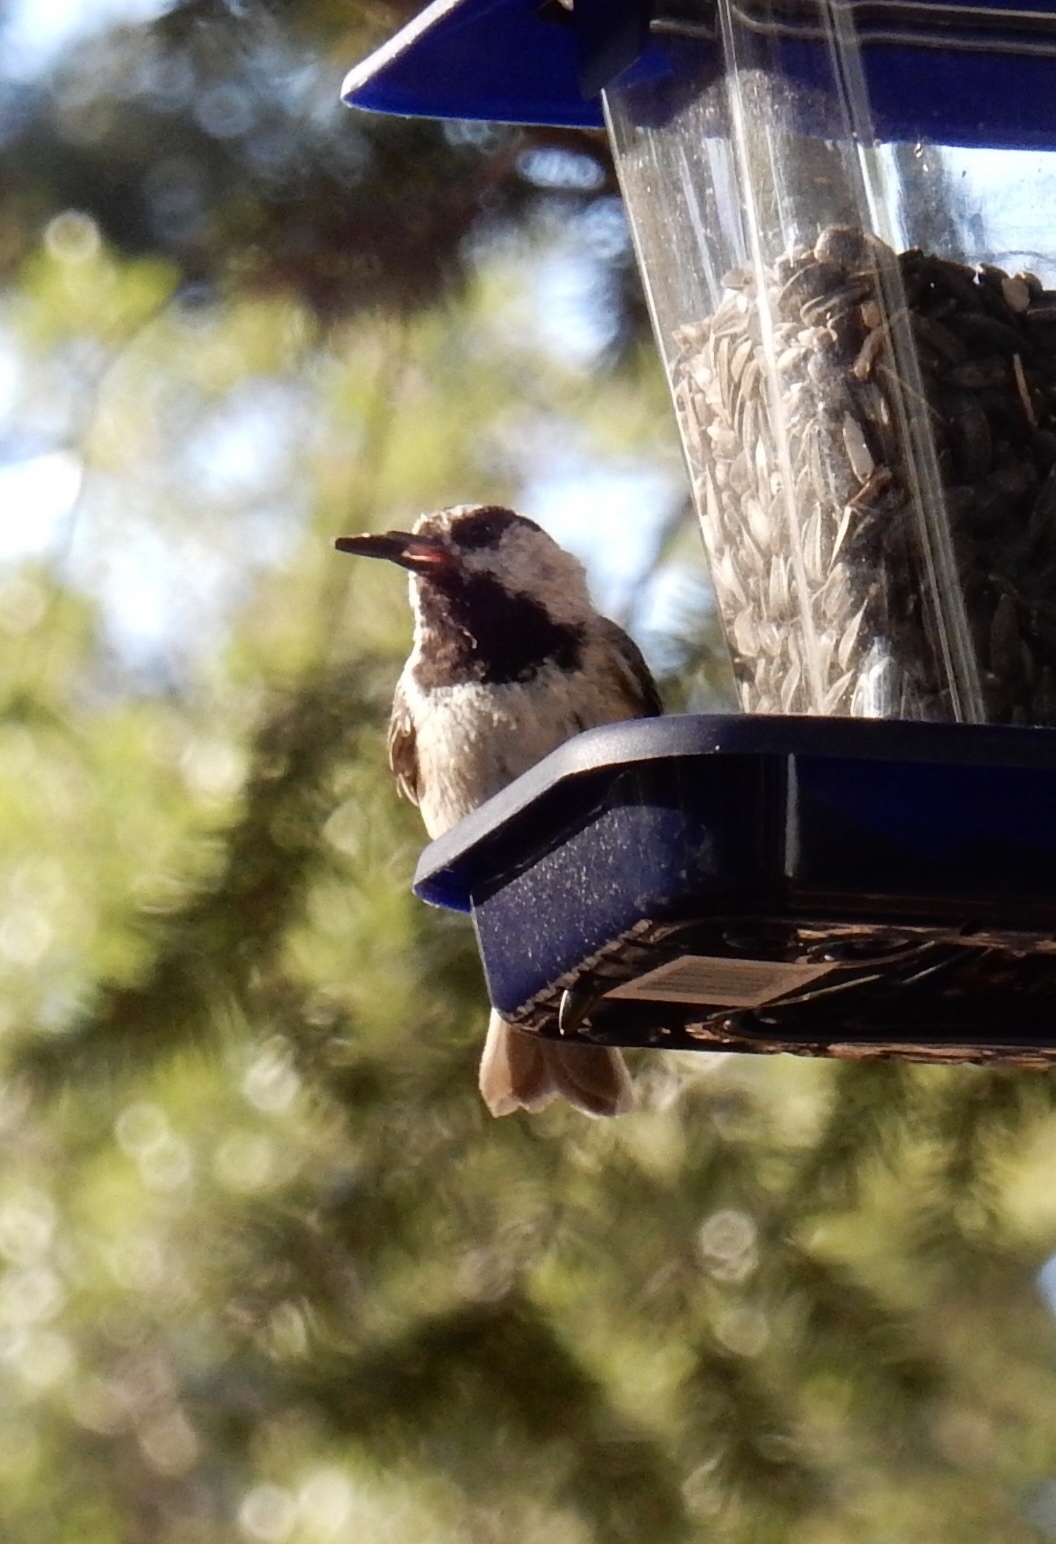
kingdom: Animalia
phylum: Chordata
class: Aves
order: Passeriformes
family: Paridae
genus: Poecile
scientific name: Poecile gambeli
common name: Mountain chickadee
